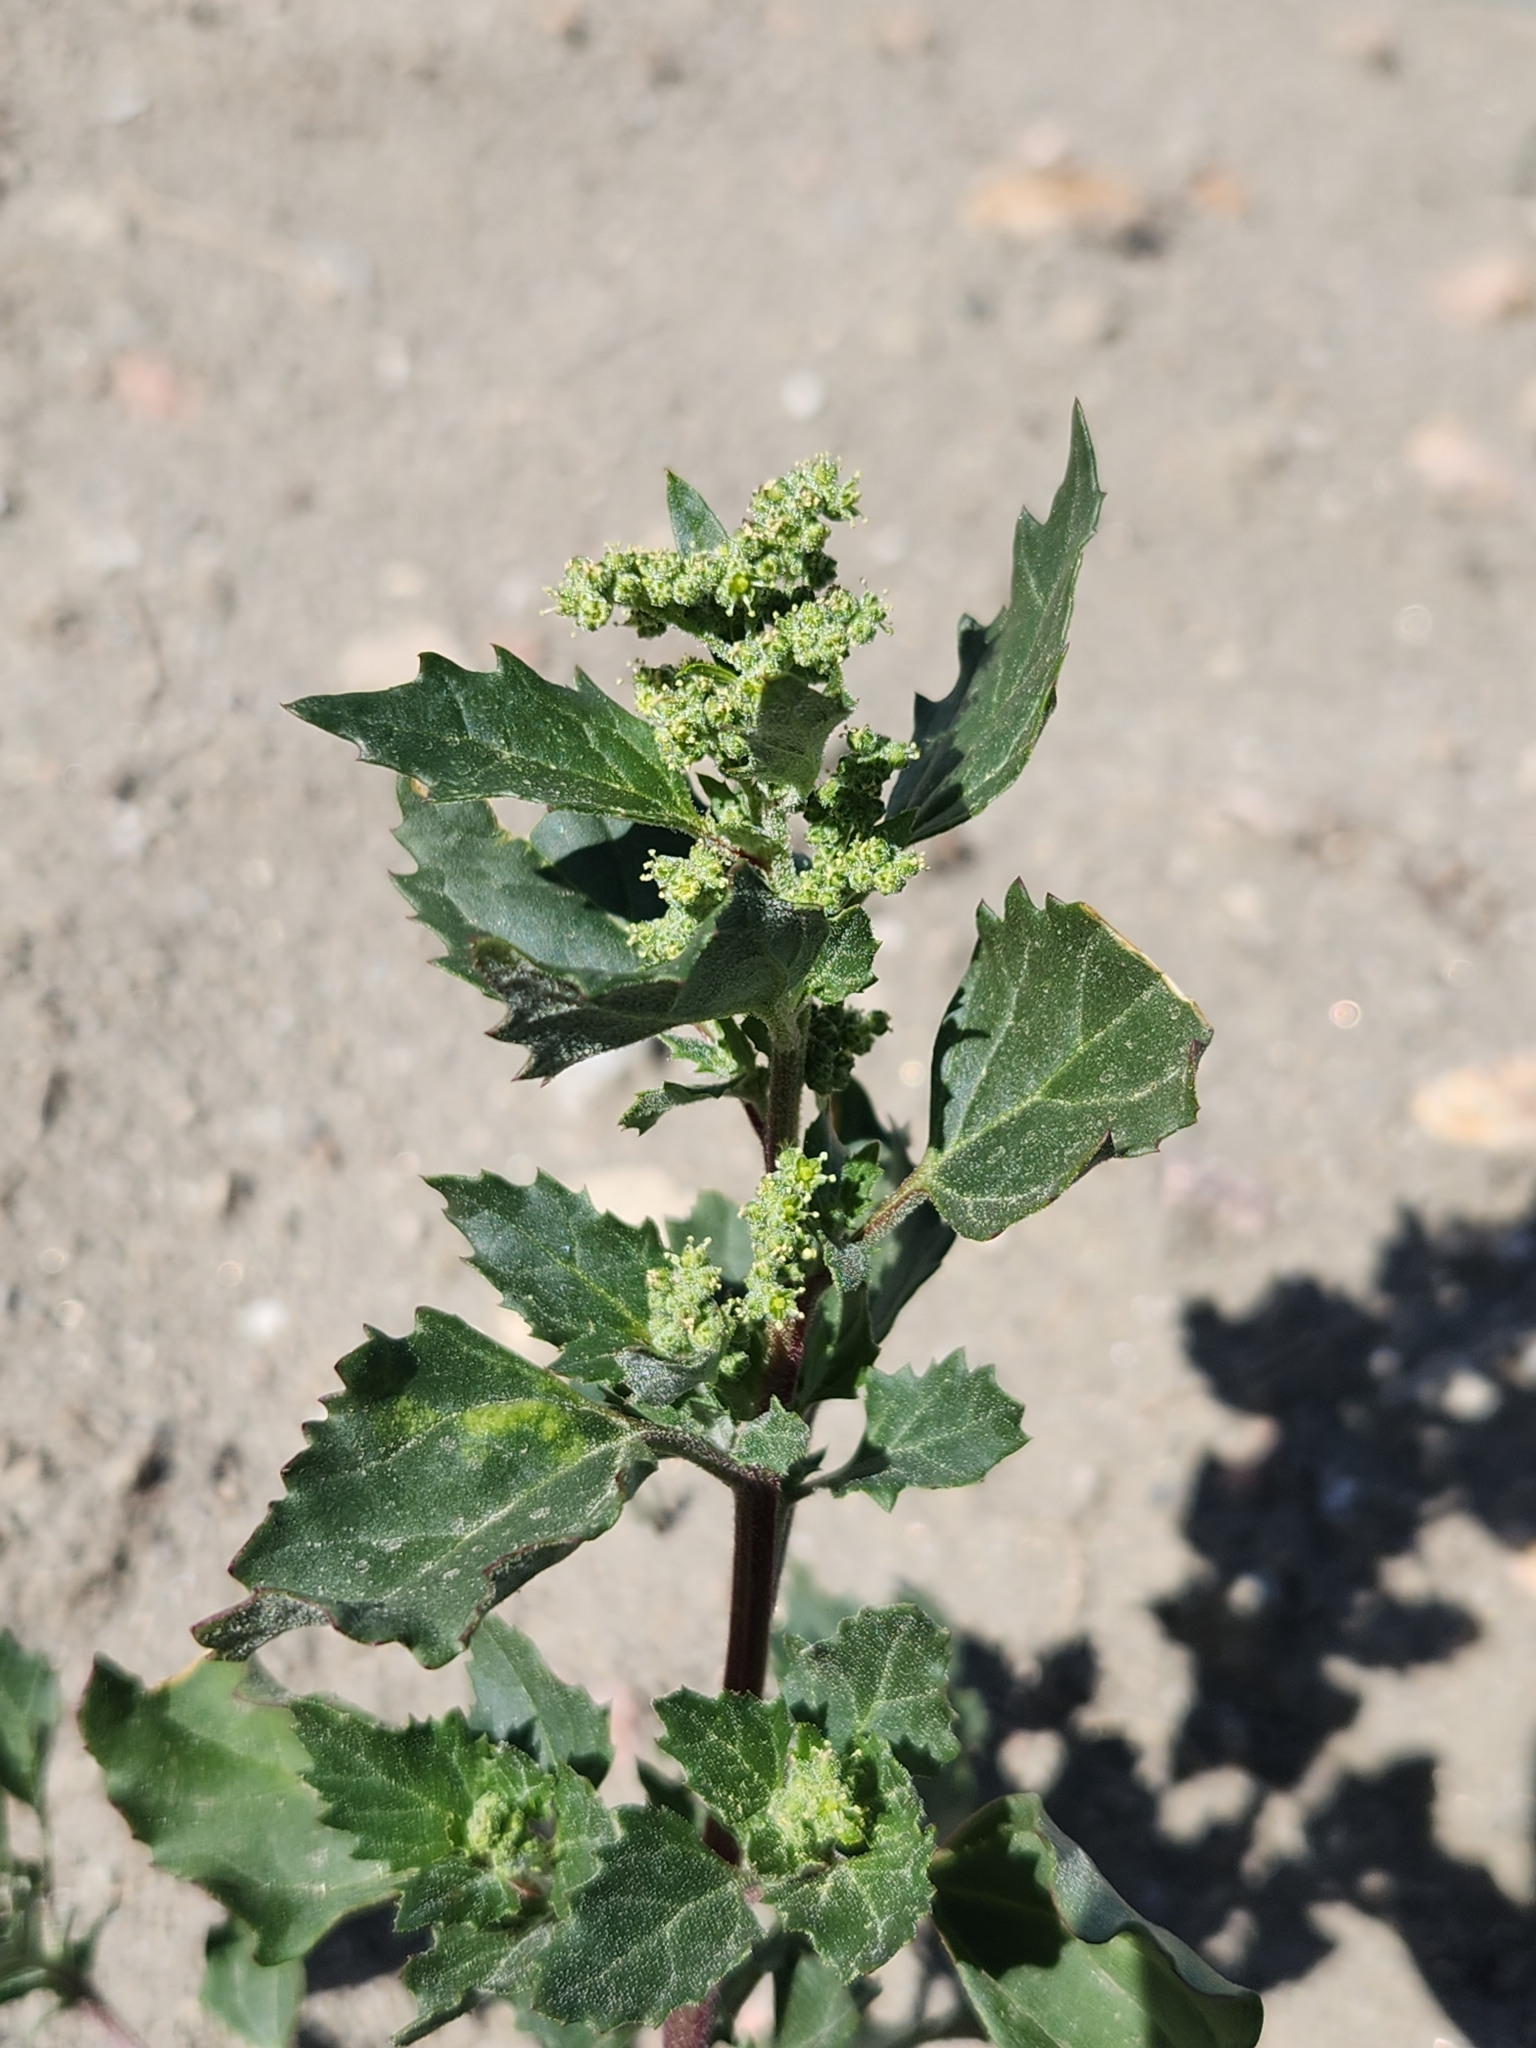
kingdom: Plantae
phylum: Tracheophyta
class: Magnoliopsida
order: Caryophyllales
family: Amaranthaceae
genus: Chenopodiastrum
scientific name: Chenopodiastrum murale
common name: Sowbane
